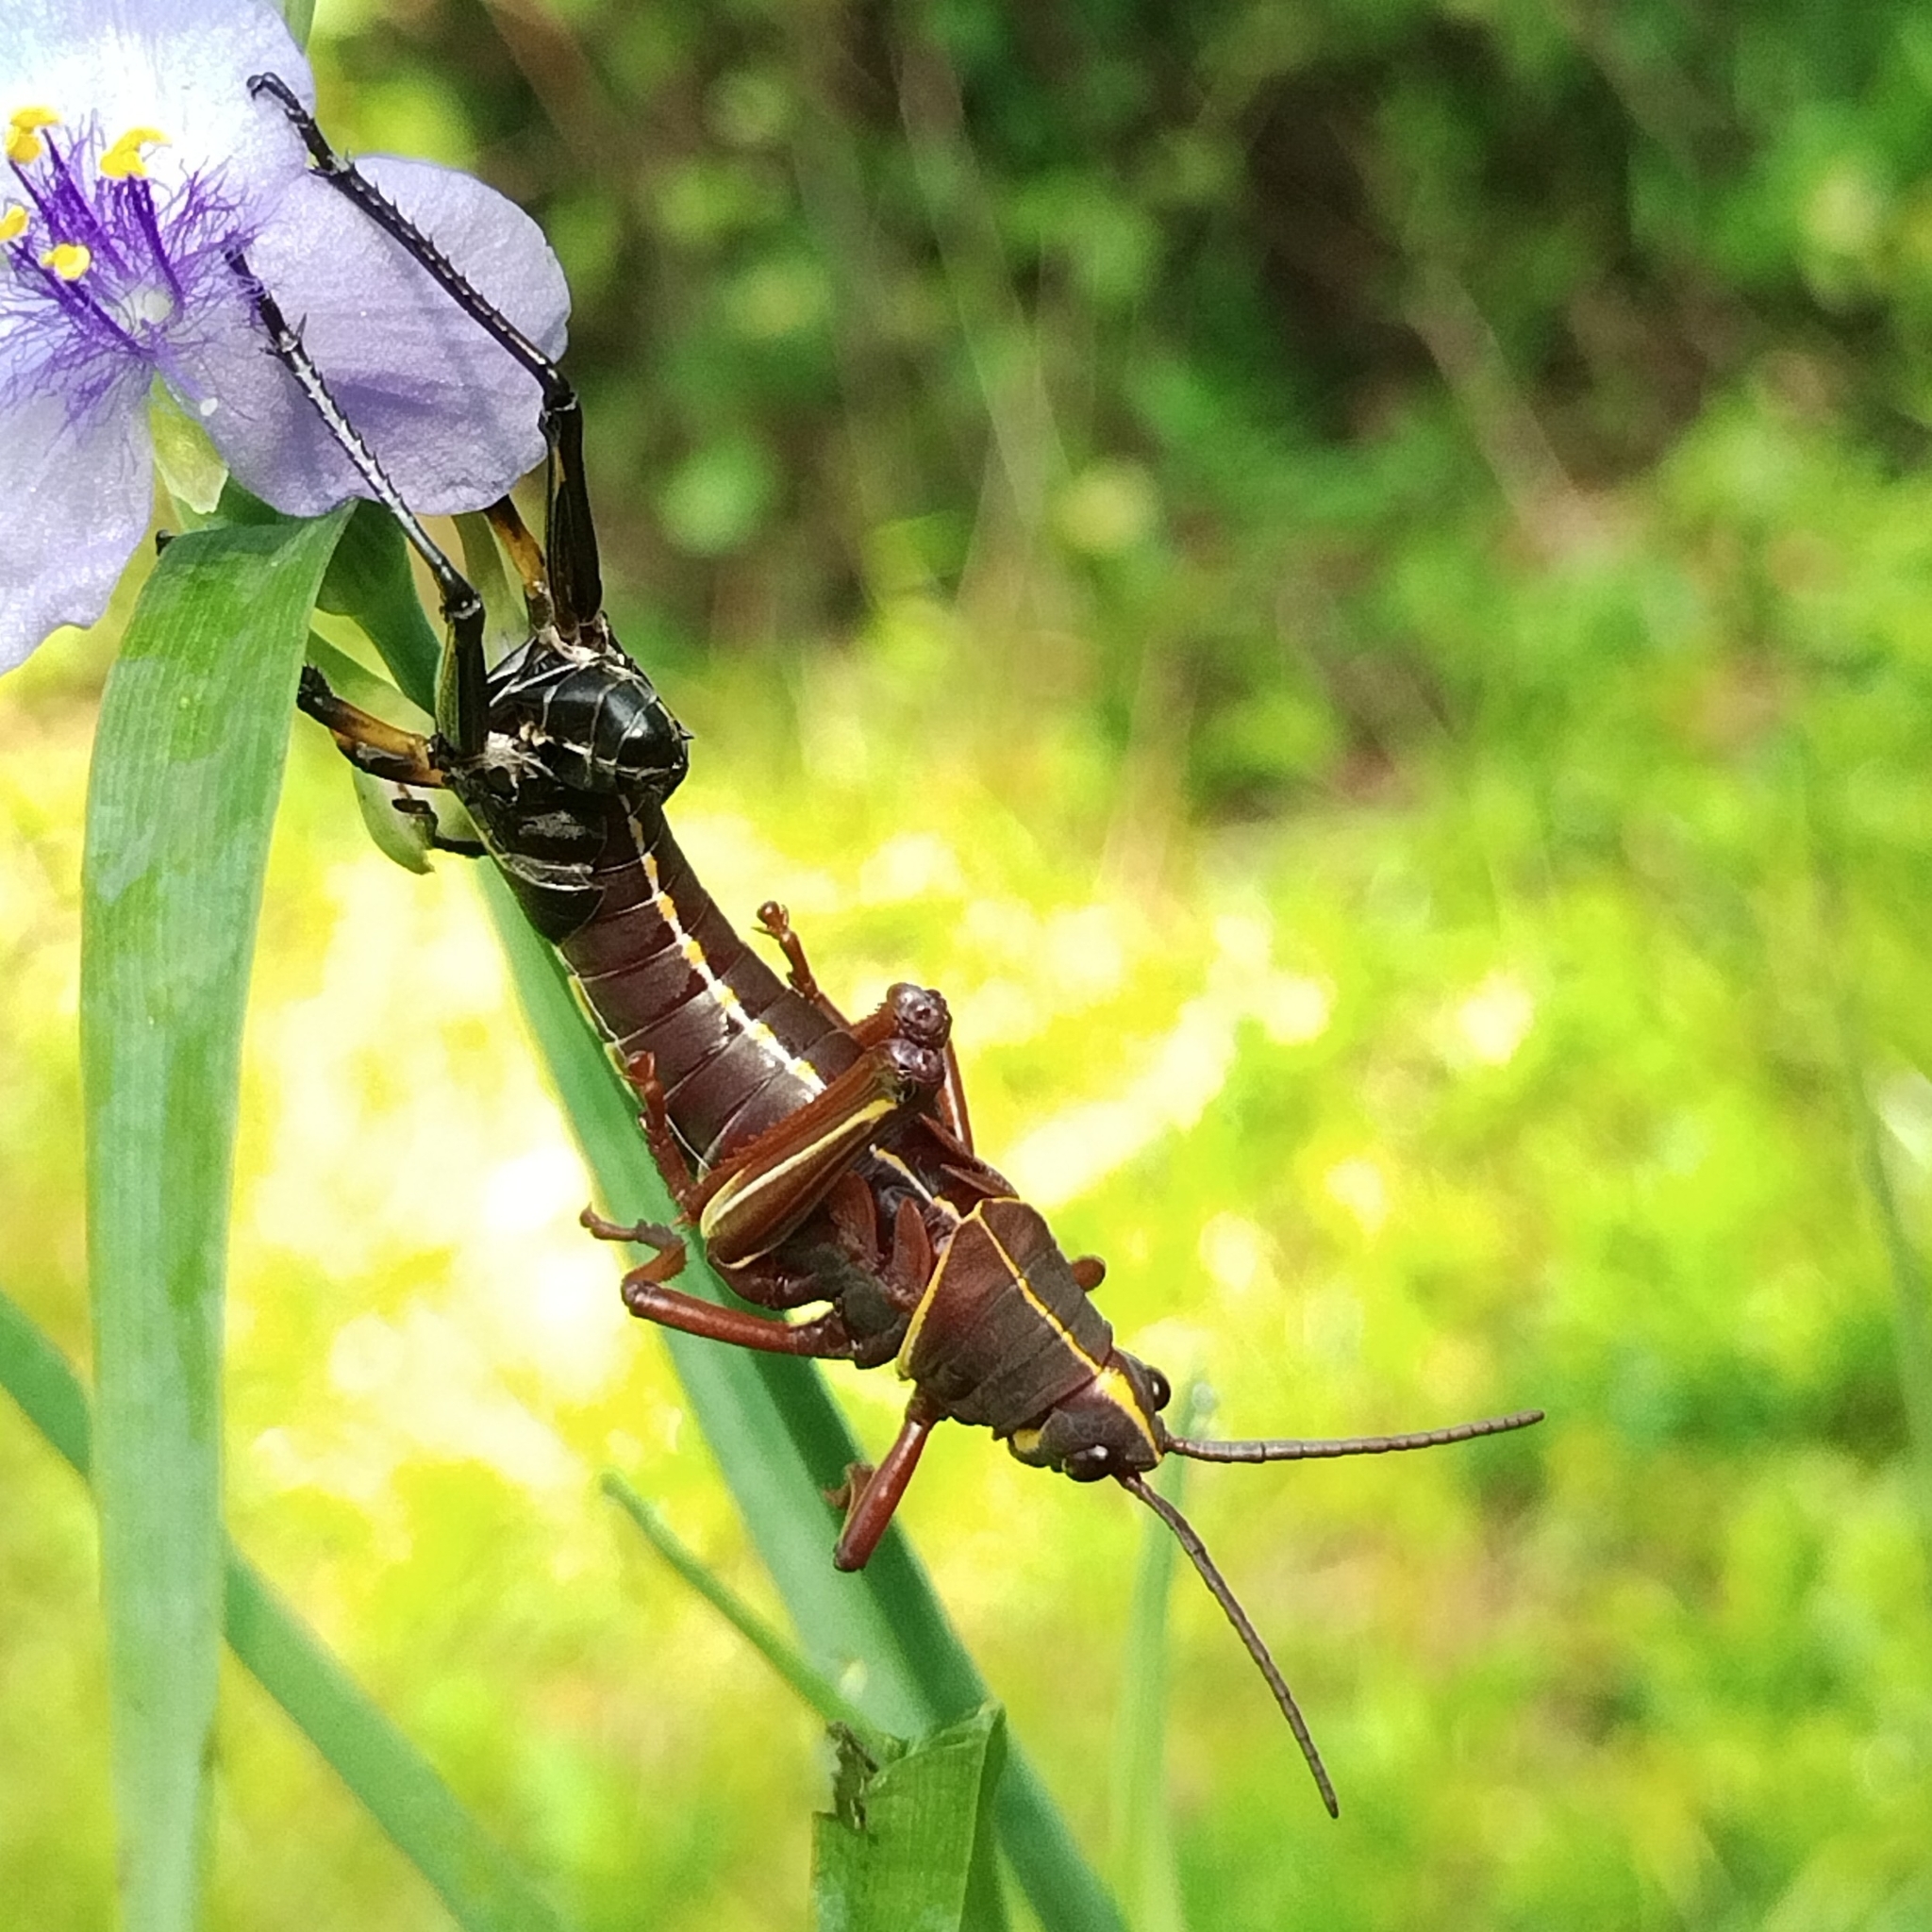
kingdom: Animalia
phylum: Arthropoda
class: Insecta
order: Orthoptera
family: Romaleidae
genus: Romalea
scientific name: Romalea microptera
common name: Eastern lubber grasshopper
